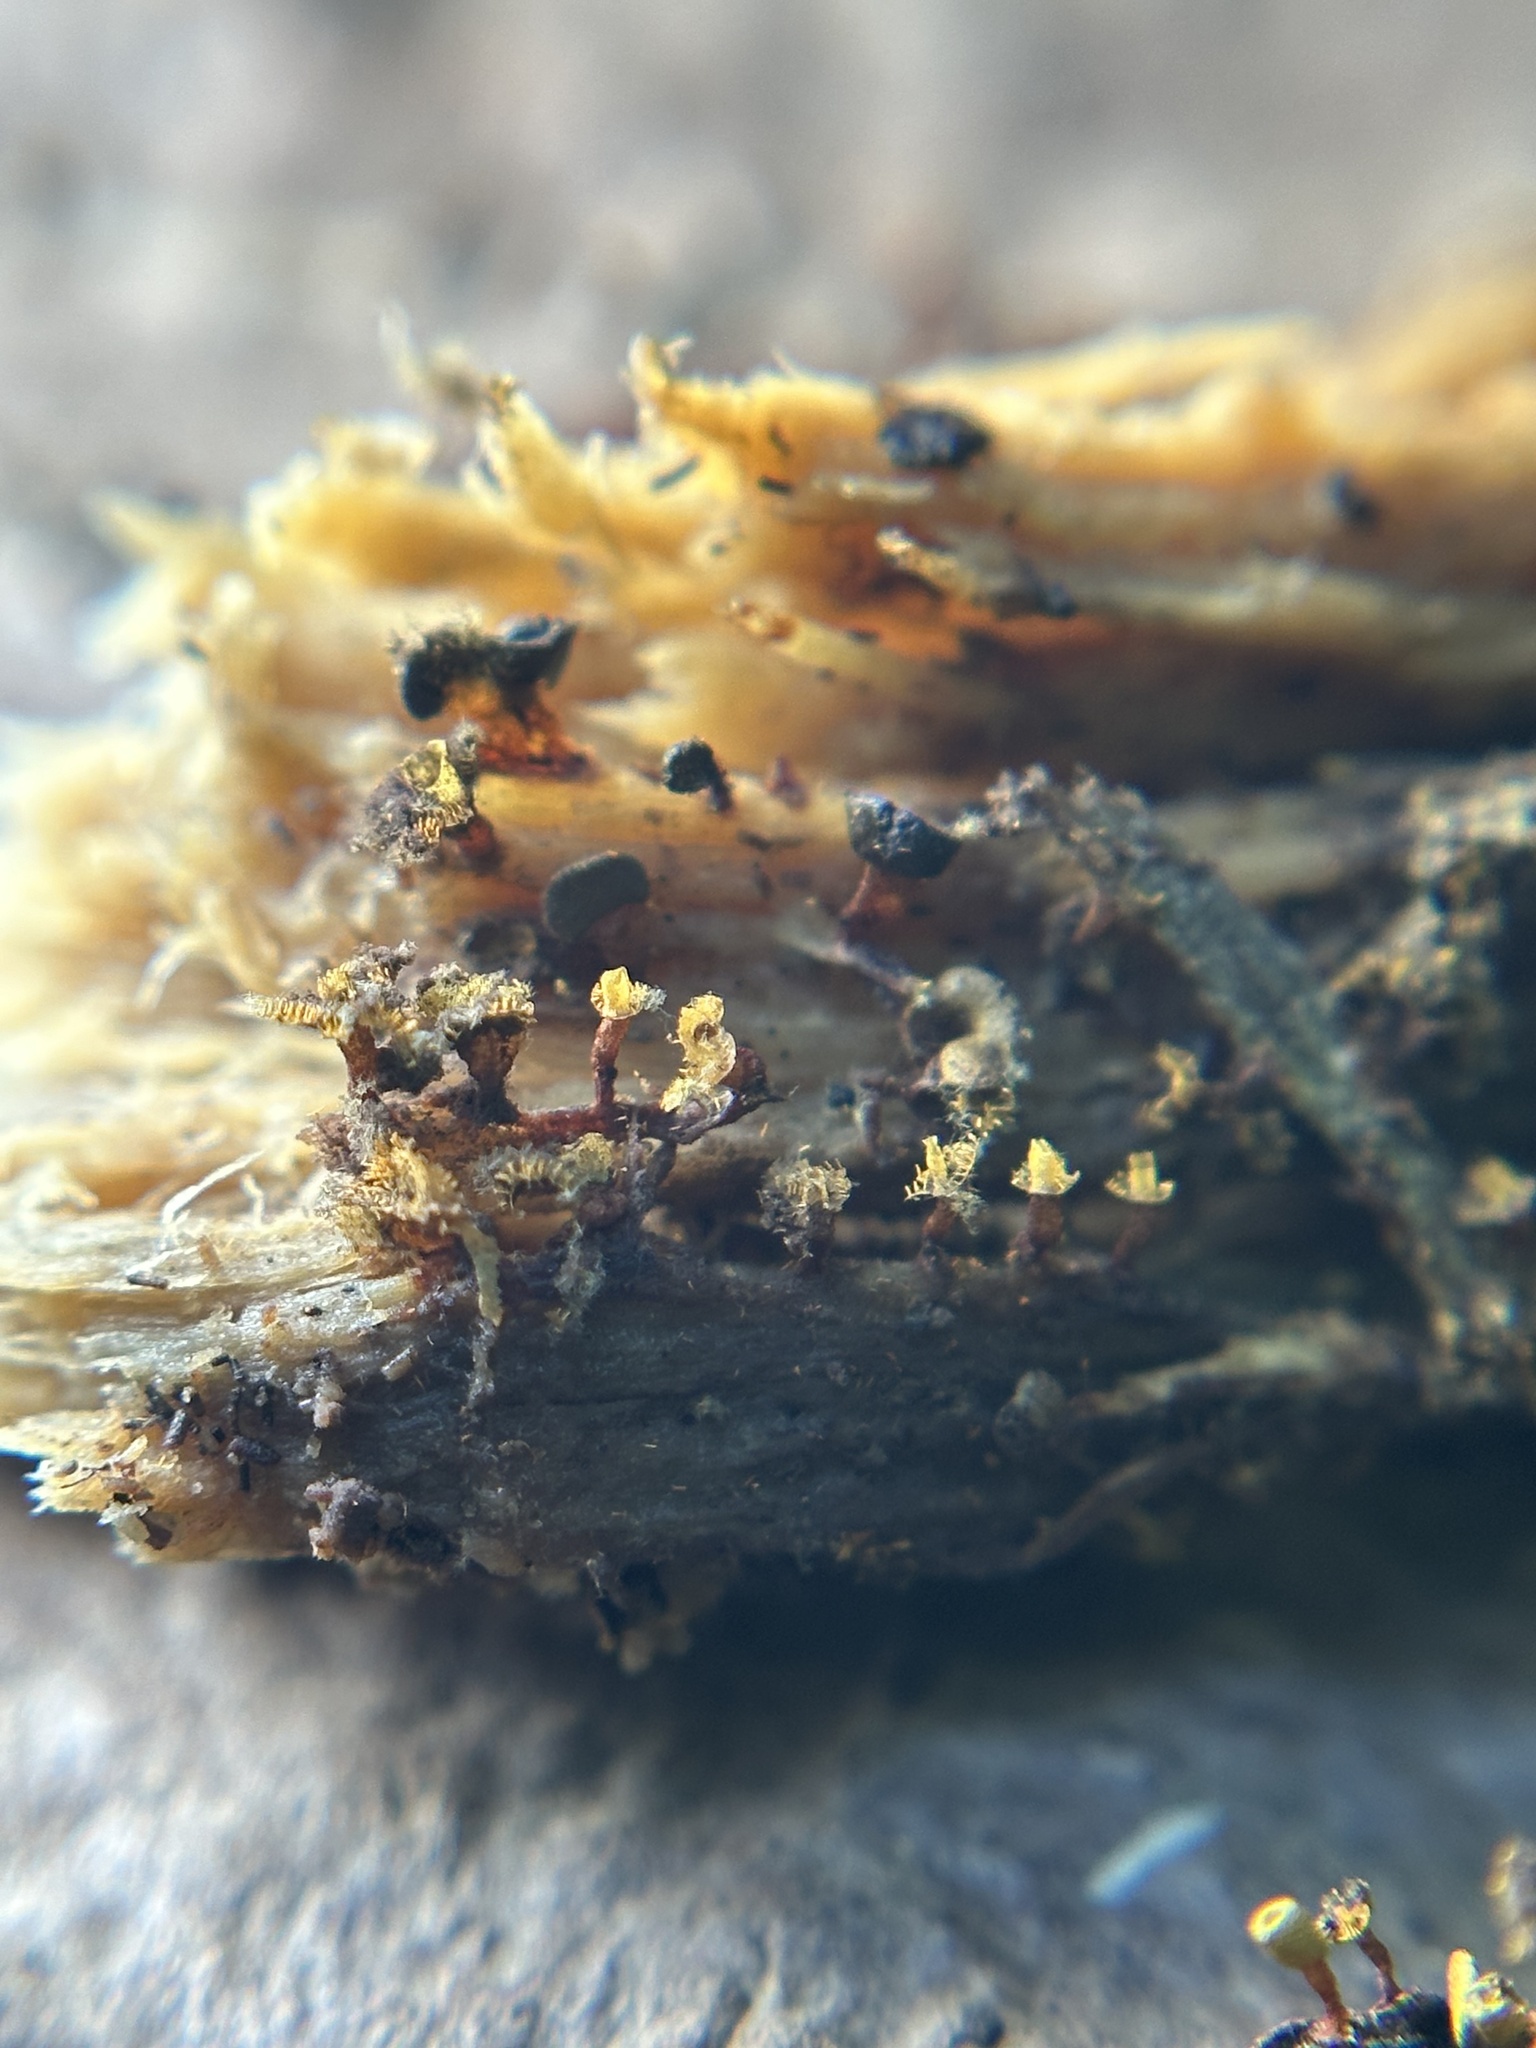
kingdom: Protozoa
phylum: Mycetozoa
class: Myxomycetes
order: Physarales
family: Physaraceae
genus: Physarella
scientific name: Physarella oblonga
